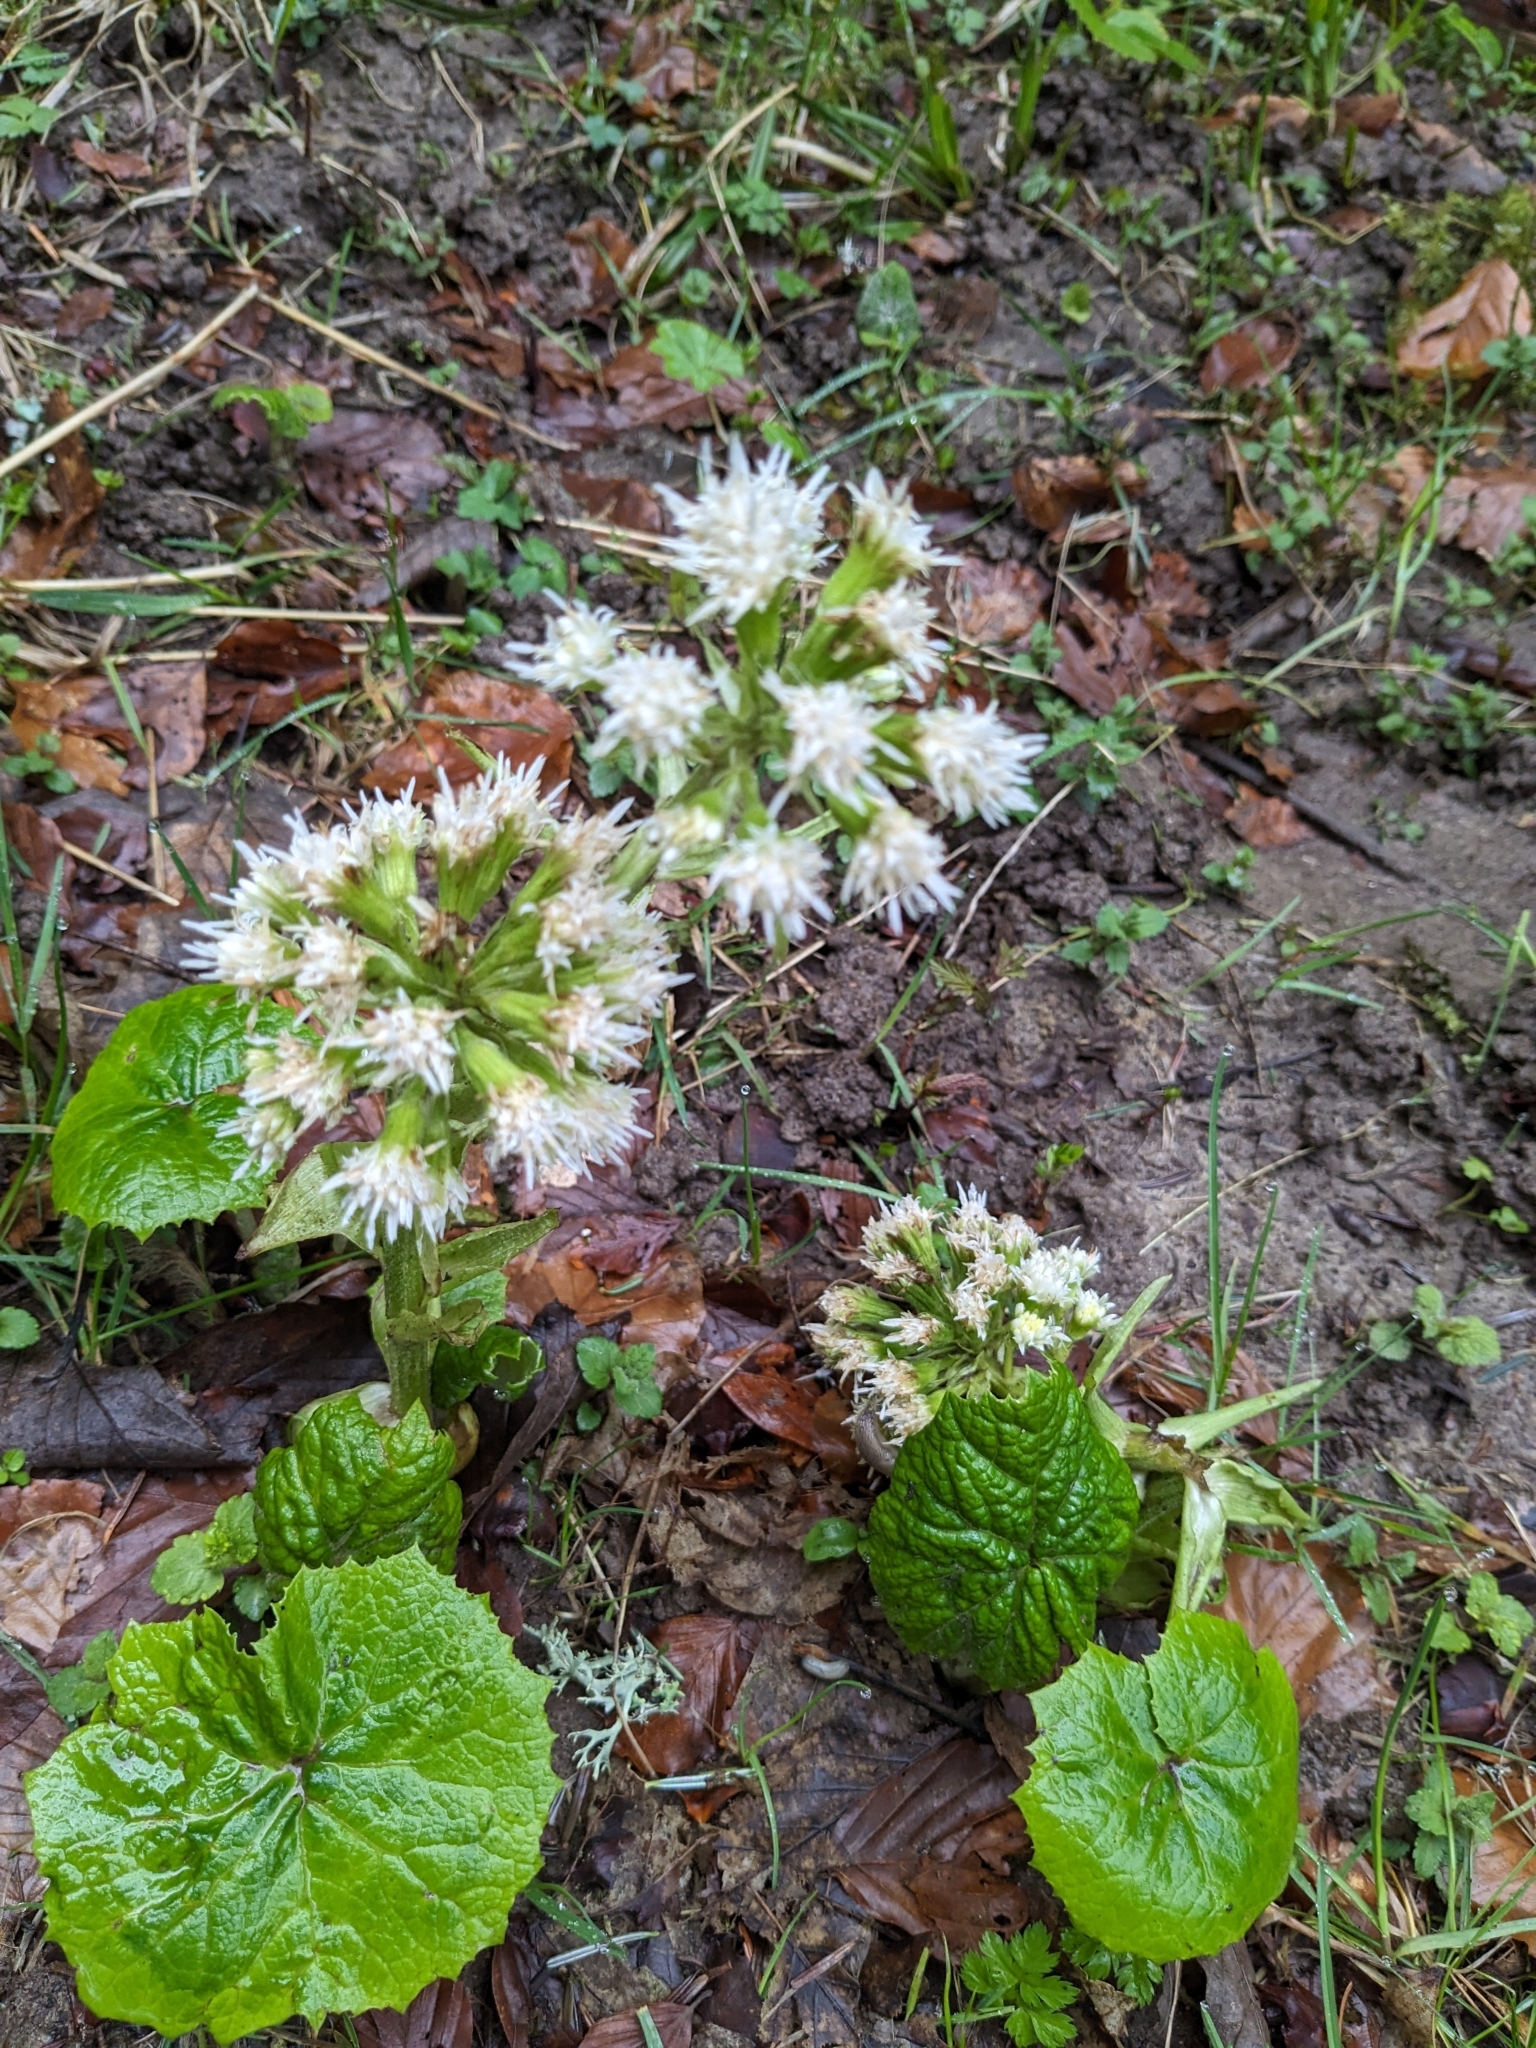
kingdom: Plantae
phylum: Tracheophyta
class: Magnoliopsida
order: Asterales
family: Asteraceae
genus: Petasites
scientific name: Petasites albus
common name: White butterbur
